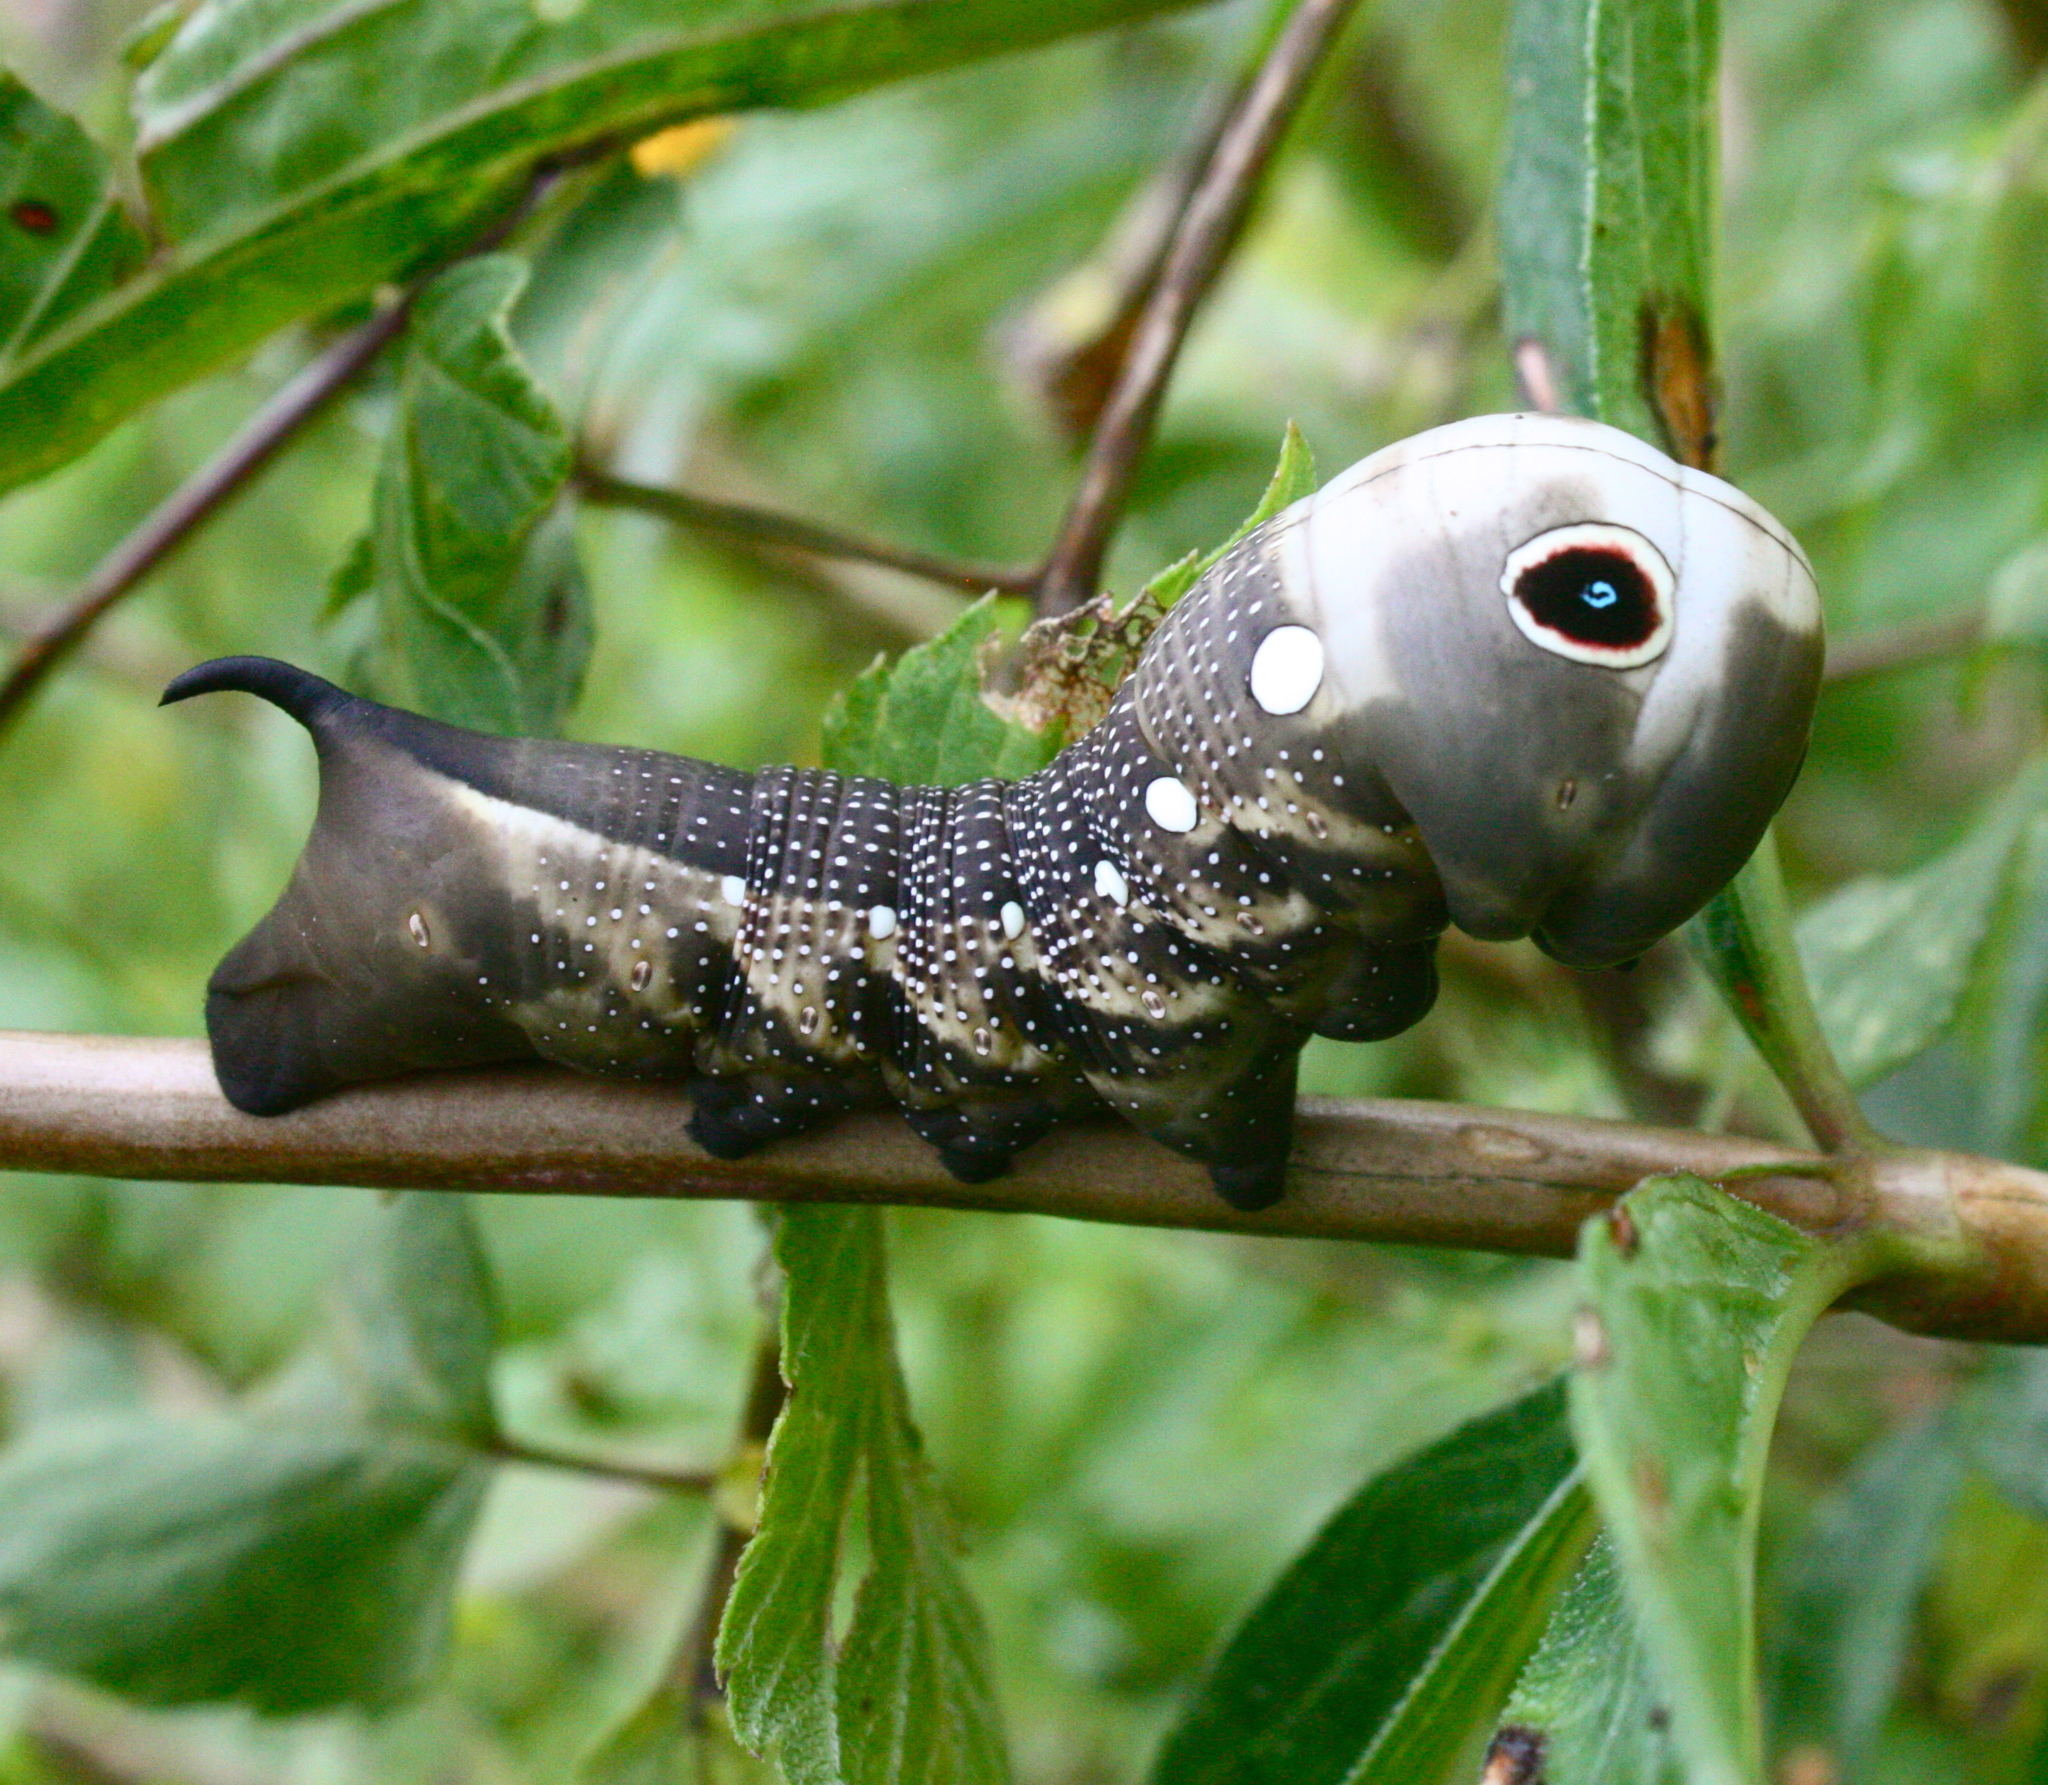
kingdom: Animalia
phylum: Arthropoda
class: Insecta
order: Lepidoptera
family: Sphingidae
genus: Xylophanes
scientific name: Xylophanes falco
